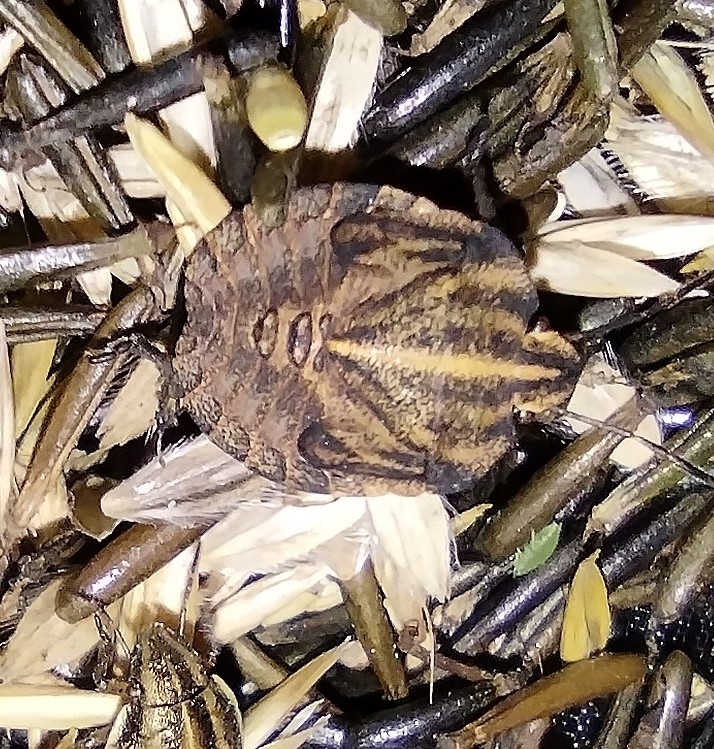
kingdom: Animalia
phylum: Arthropoda
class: Insecta
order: Hemiptera
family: Pentatomidae
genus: Graphosoma
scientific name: Graphosoma italicum
